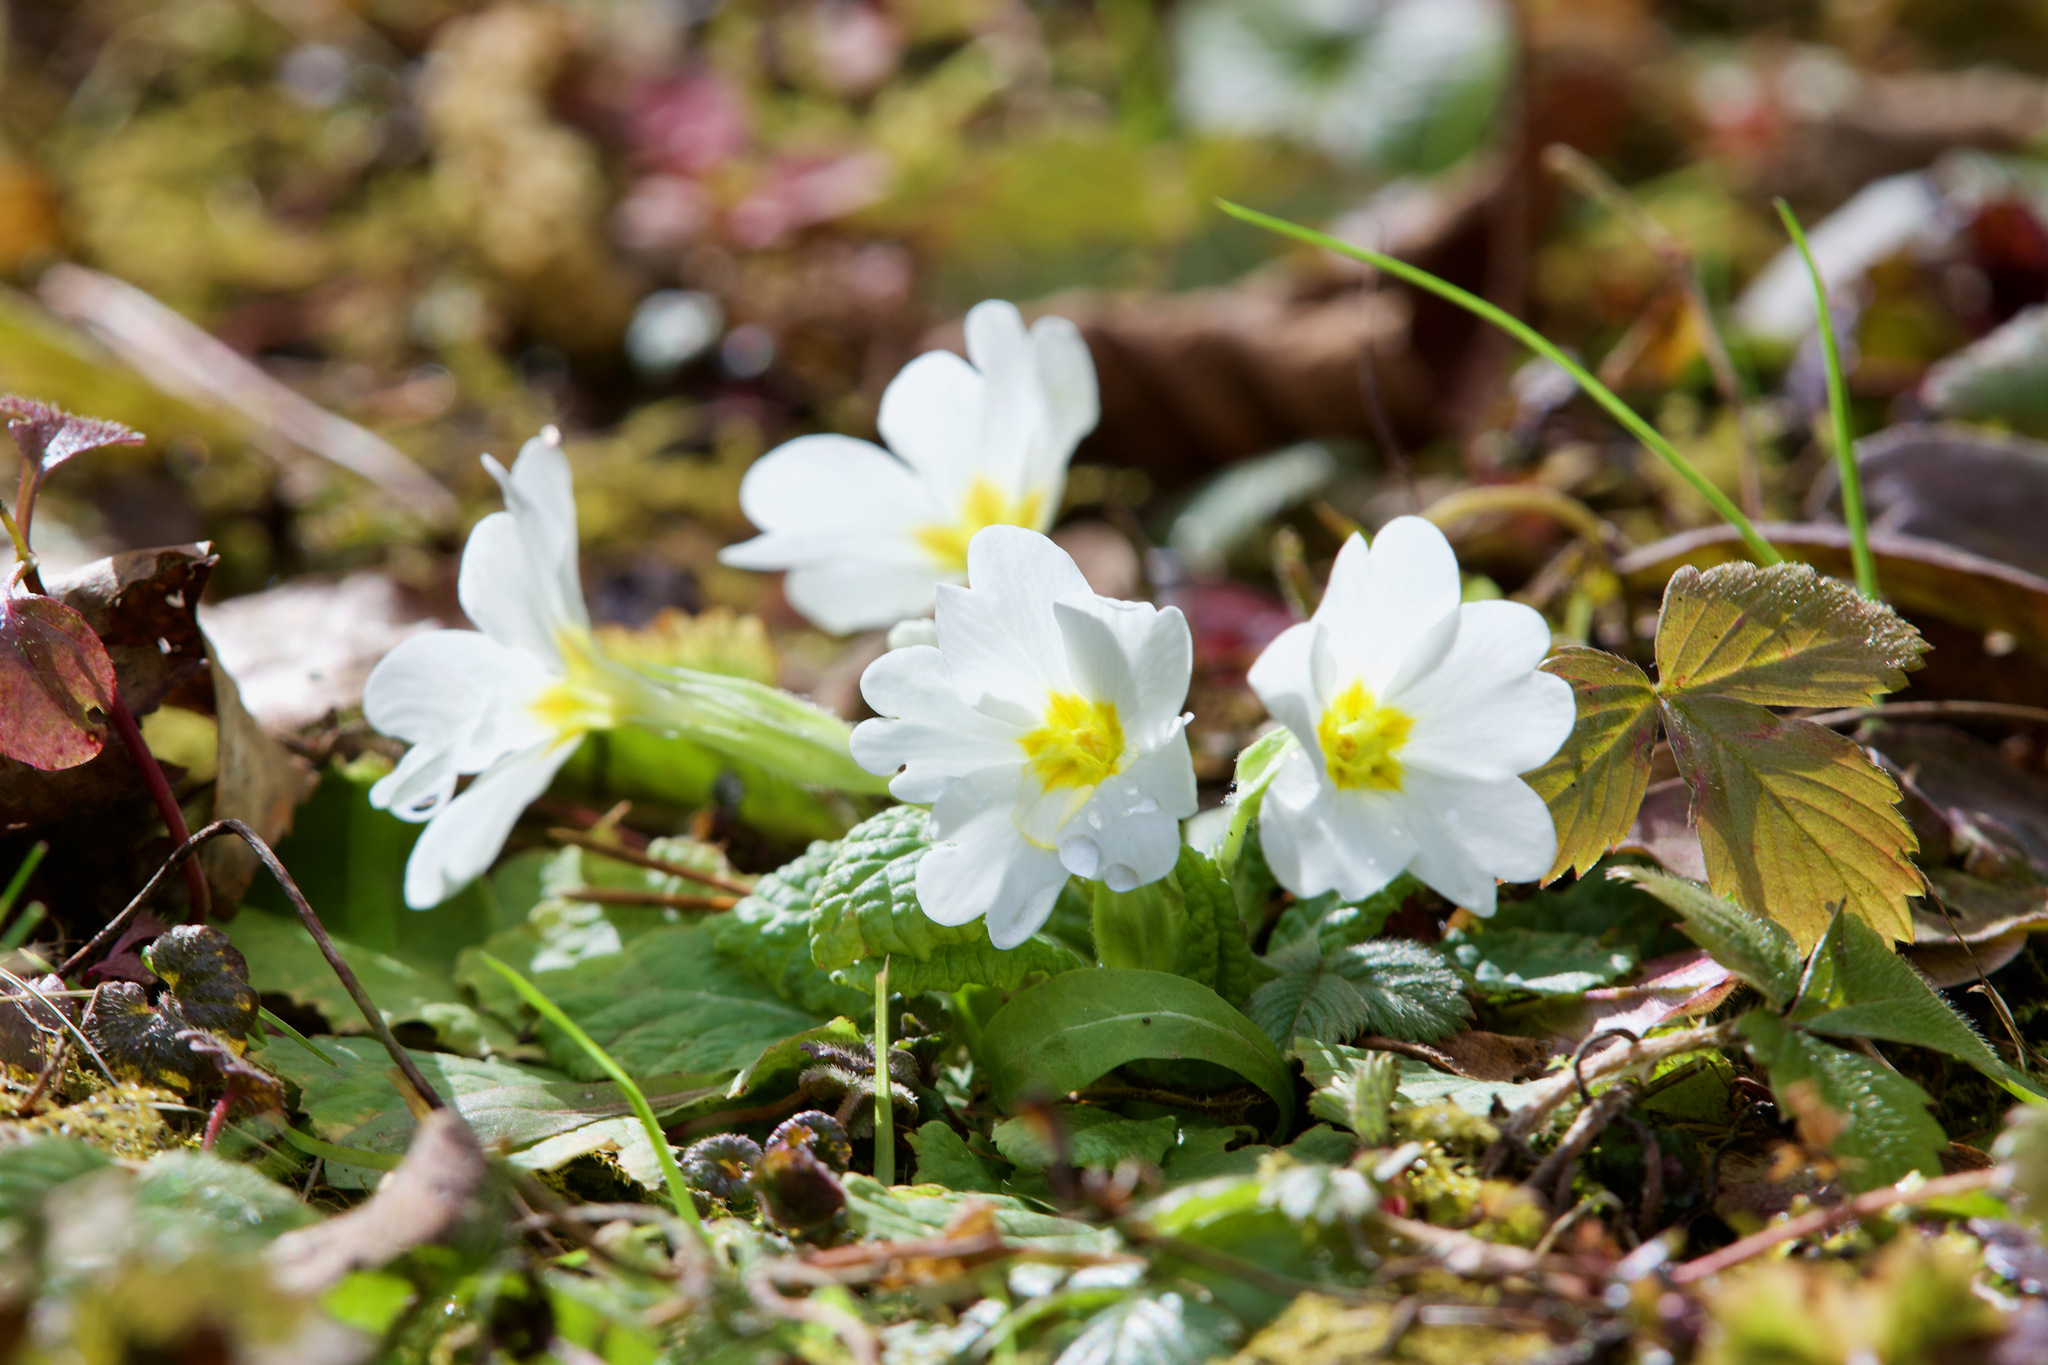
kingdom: Plantae
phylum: Tracheophyta
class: Magnoliopsida
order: Ericales
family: Primulaceae
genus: Primula
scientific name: Primula vulgaris
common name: Primrose
